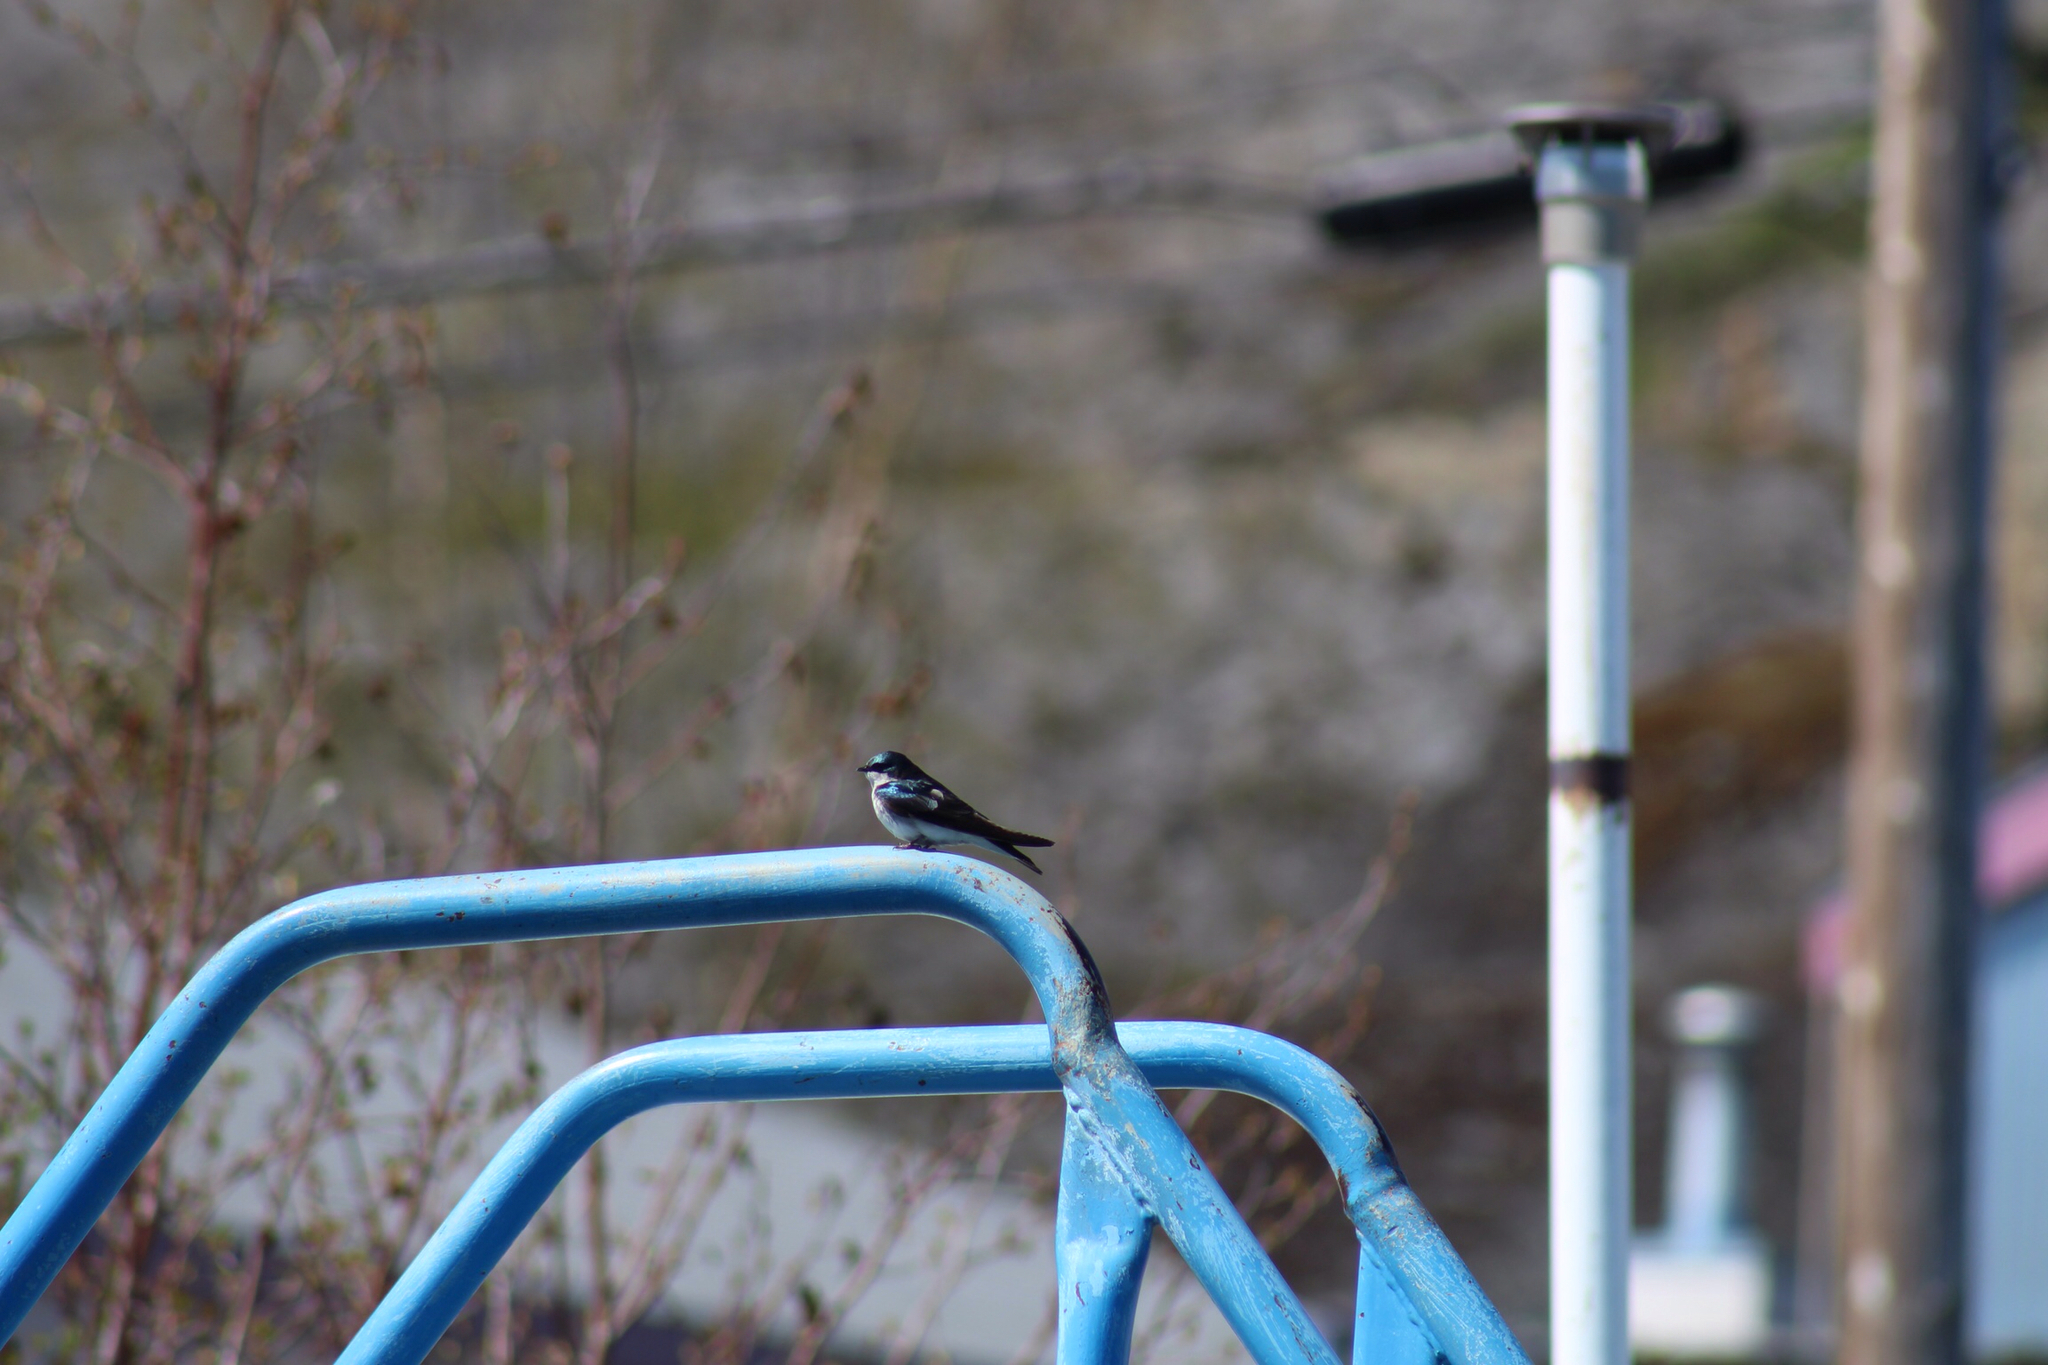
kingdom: Animalia
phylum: Chordata
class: Aves
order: Passeriformes
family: Hirundinidae
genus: Tachycineta
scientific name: Tachycineta bicolor
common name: Tree swallow
